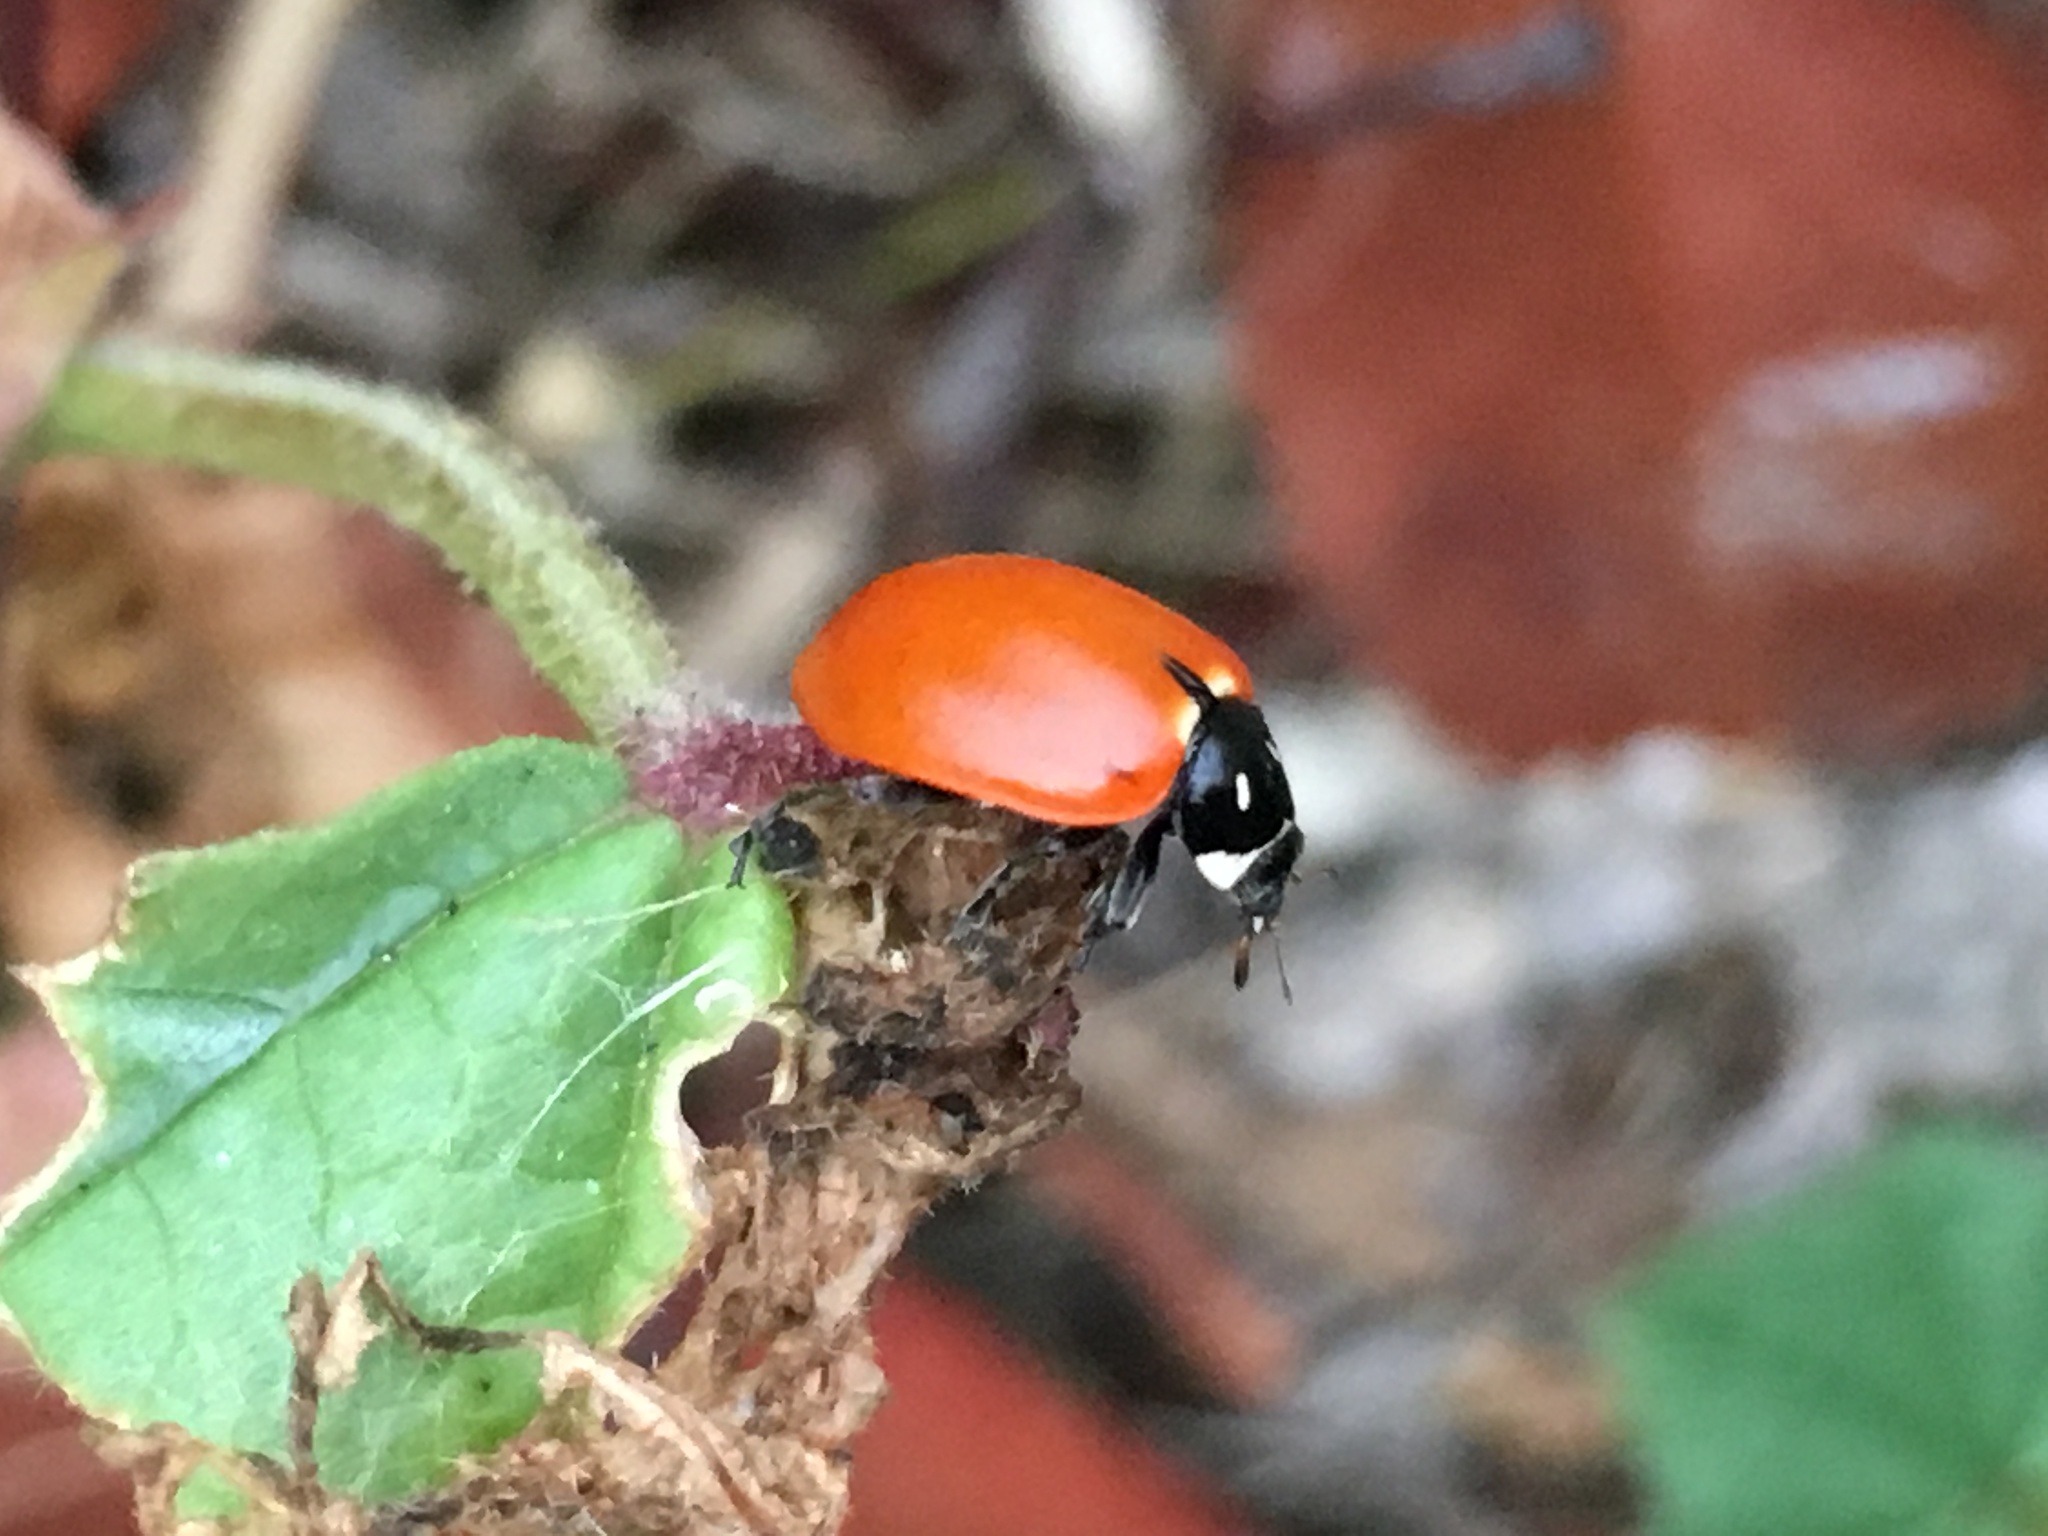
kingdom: Animalia
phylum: Arthropoda
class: Insecta
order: Coleoptera
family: Coccinellidae
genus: Hippodamia
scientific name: Hippodamia quinquesignata
